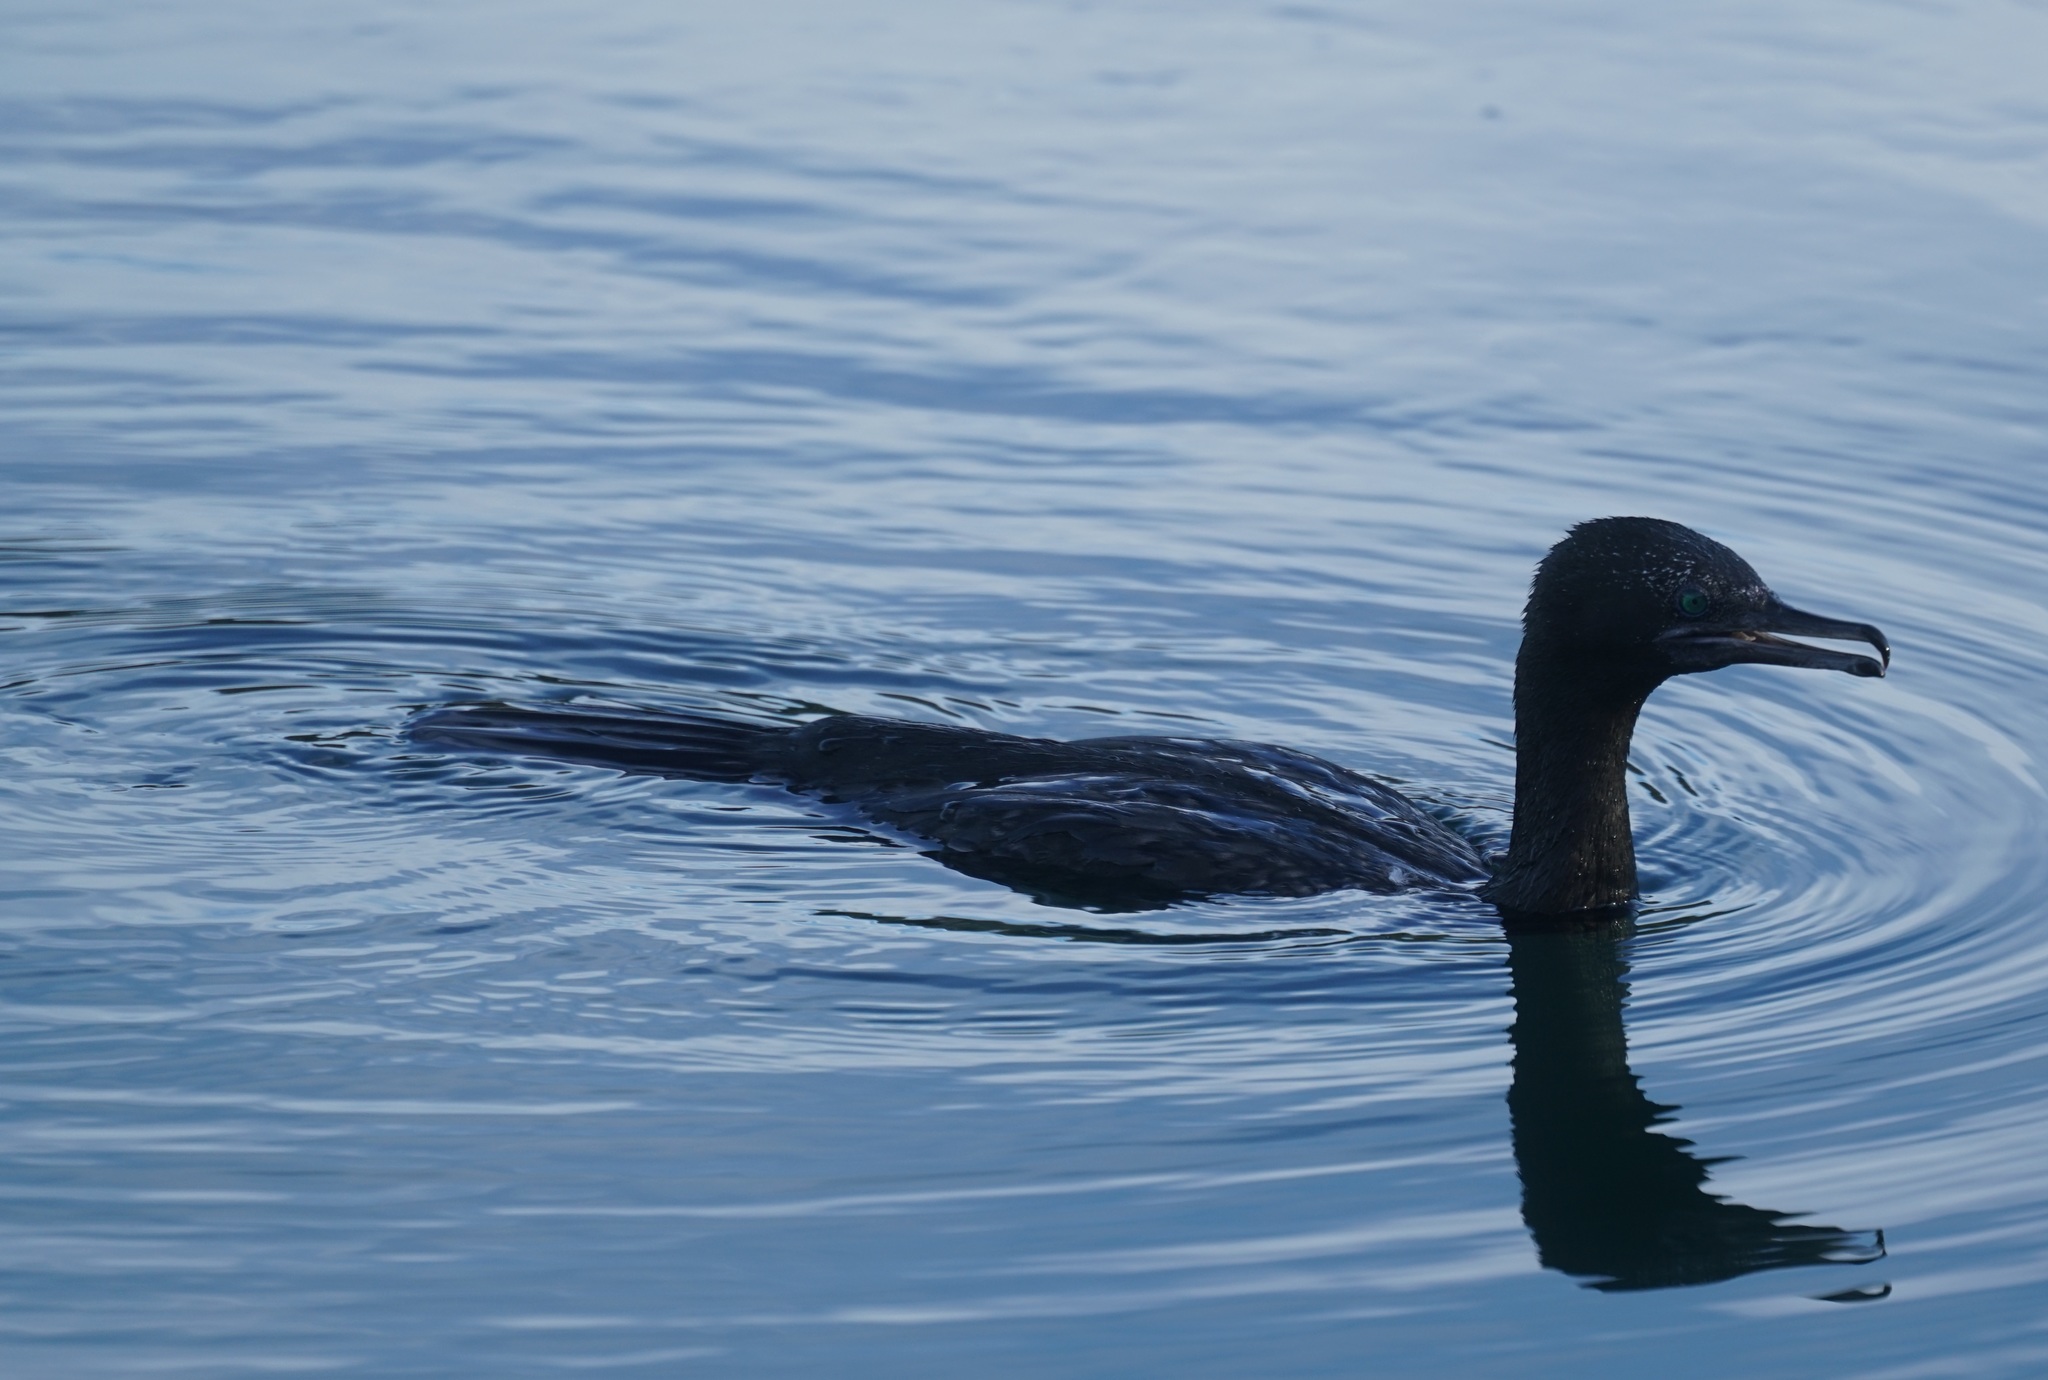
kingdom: Animalia
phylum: Chordata
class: Aves
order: Suliformes
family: Phalacrocoracidae
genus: Phalacrocorax
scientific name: Phalacrocorax sulcirostris
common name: Little black cormorant
